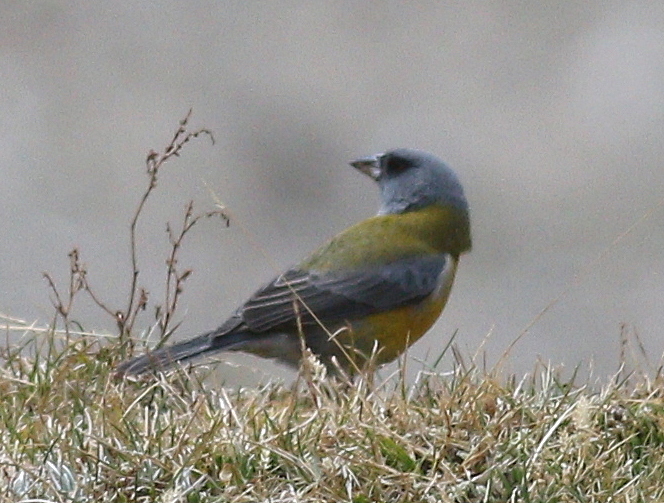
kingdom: Animalia
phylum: Chordata
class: Aves
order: Passeriformes
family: Thraupidae
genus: Phrygilus
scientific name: Phrygilus punensis
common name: Peruvian sierra finch
